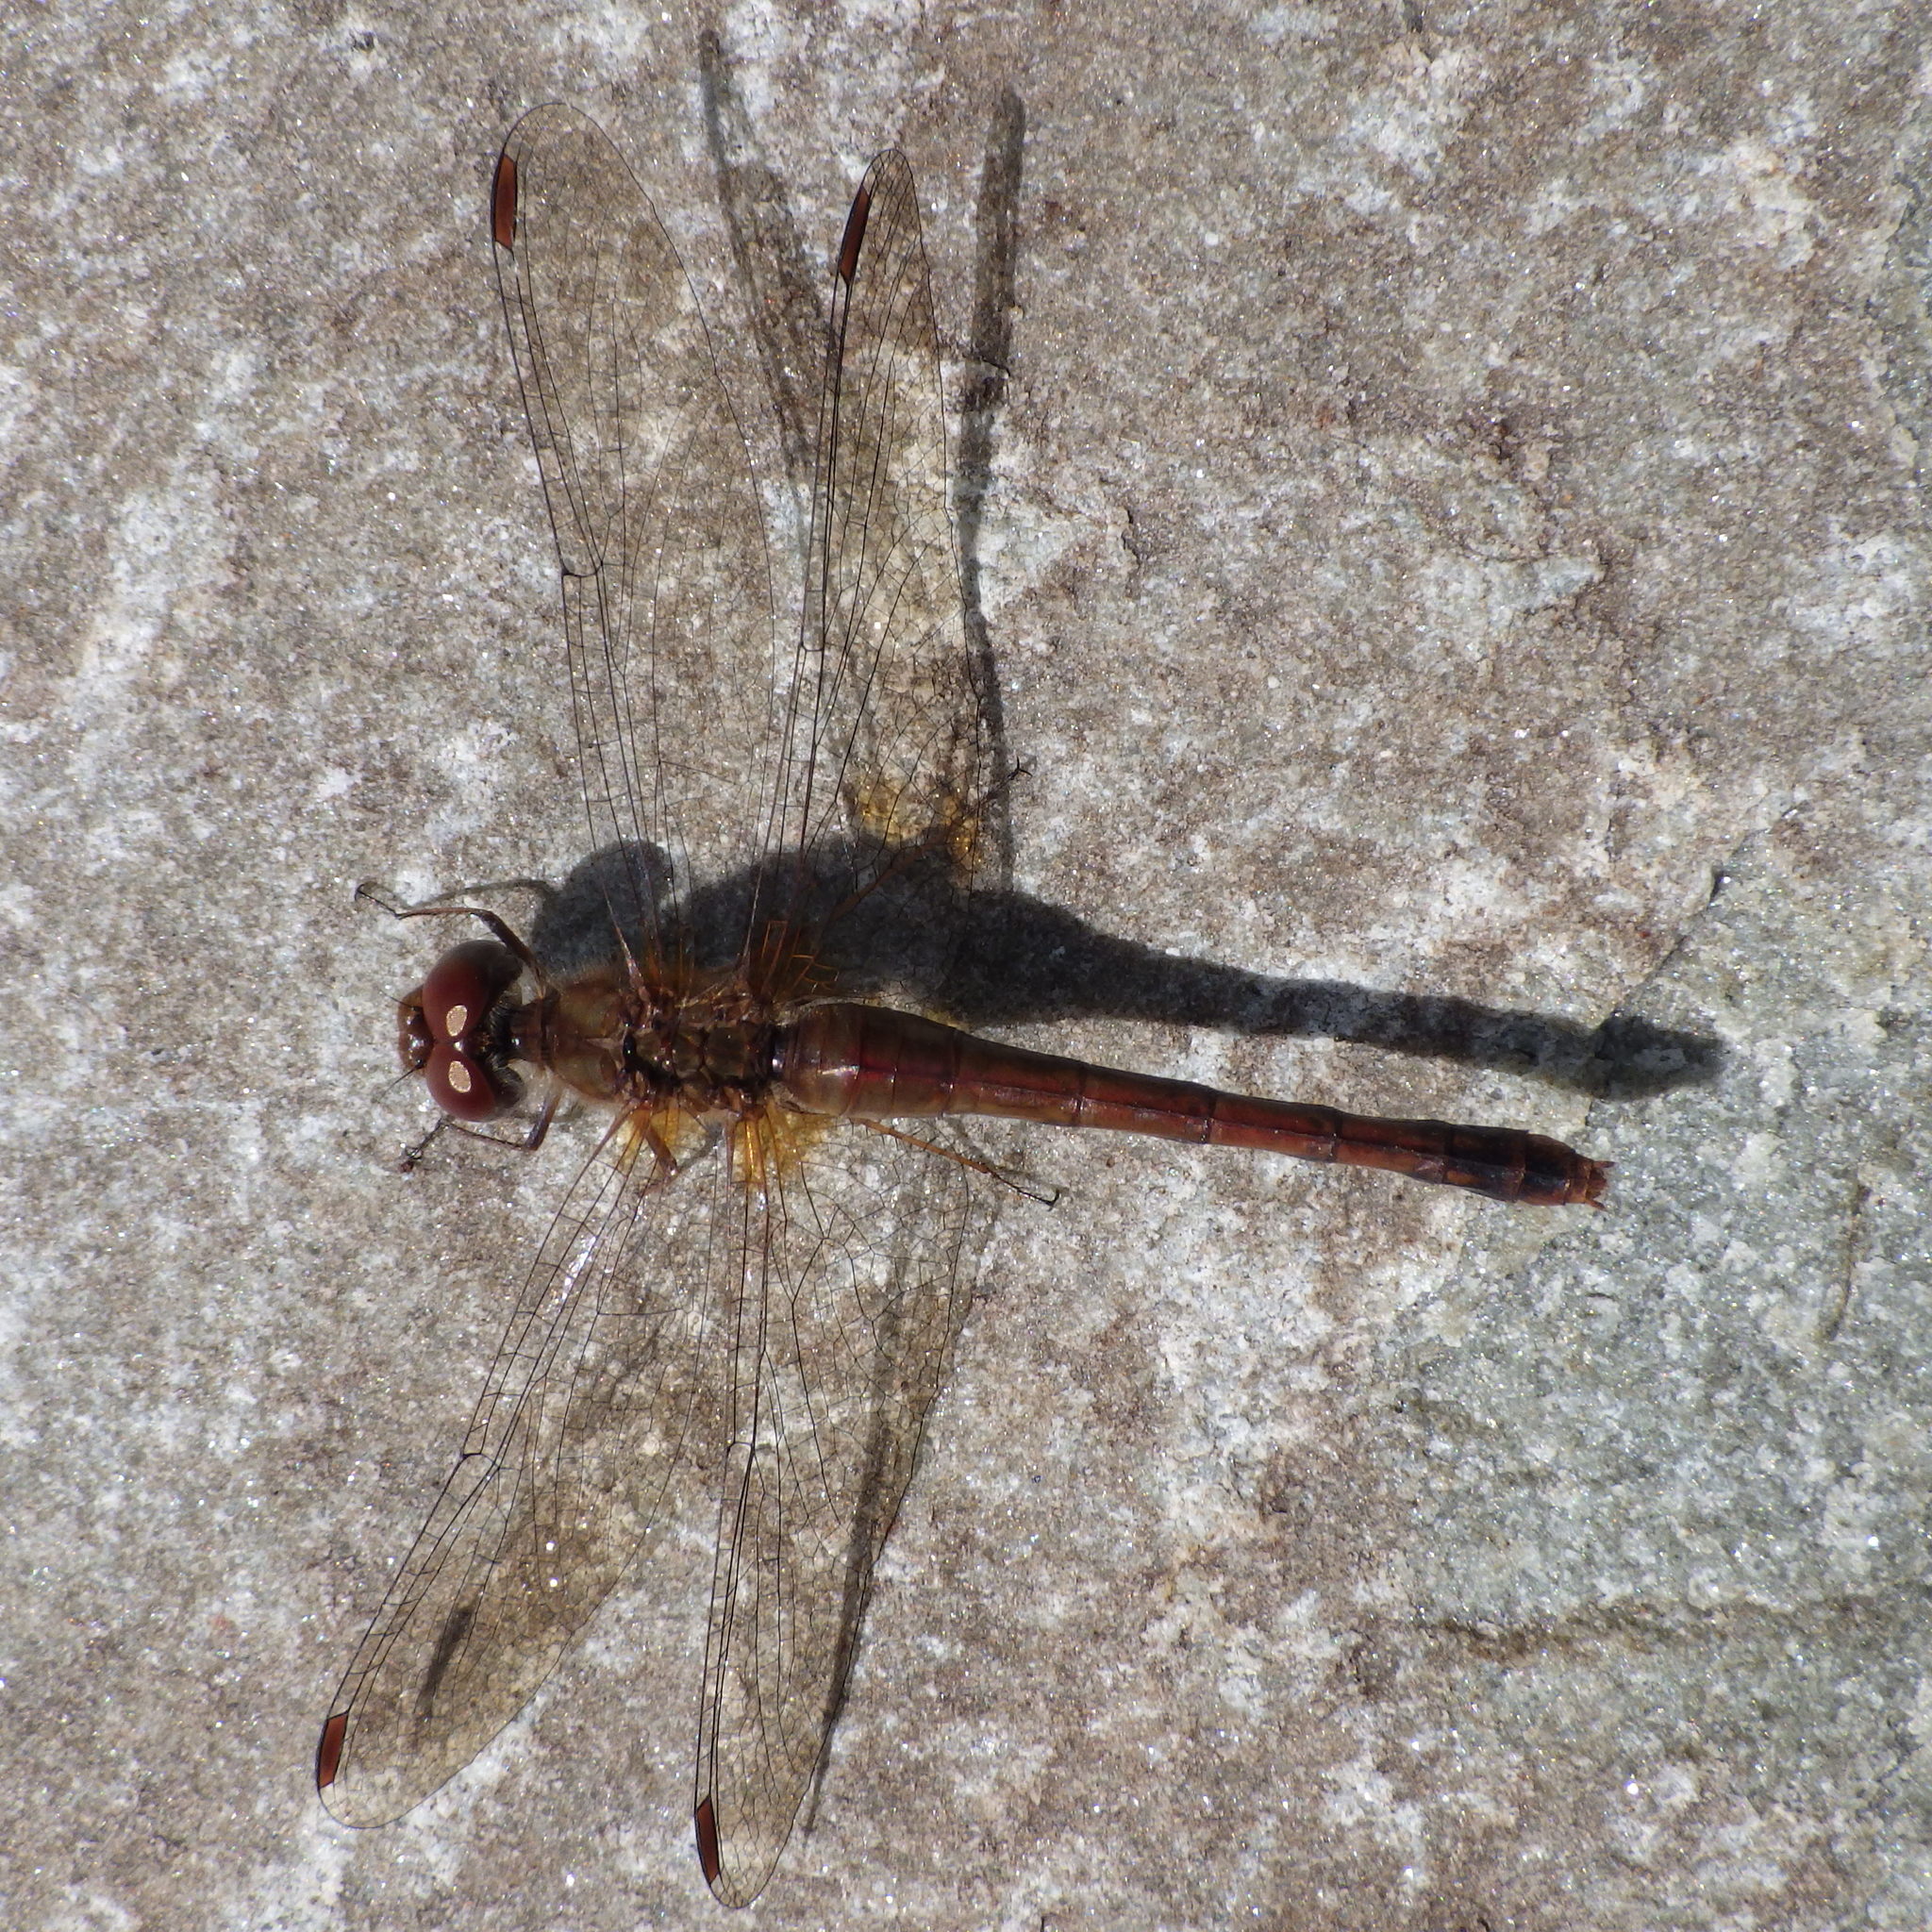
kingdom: Animalia
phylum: Arthropoda
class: Insecta
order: Odonata
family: Libellulidae
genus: Sympetrum
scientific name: Sympetrum vicinum
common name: Autumn meadowhawk
